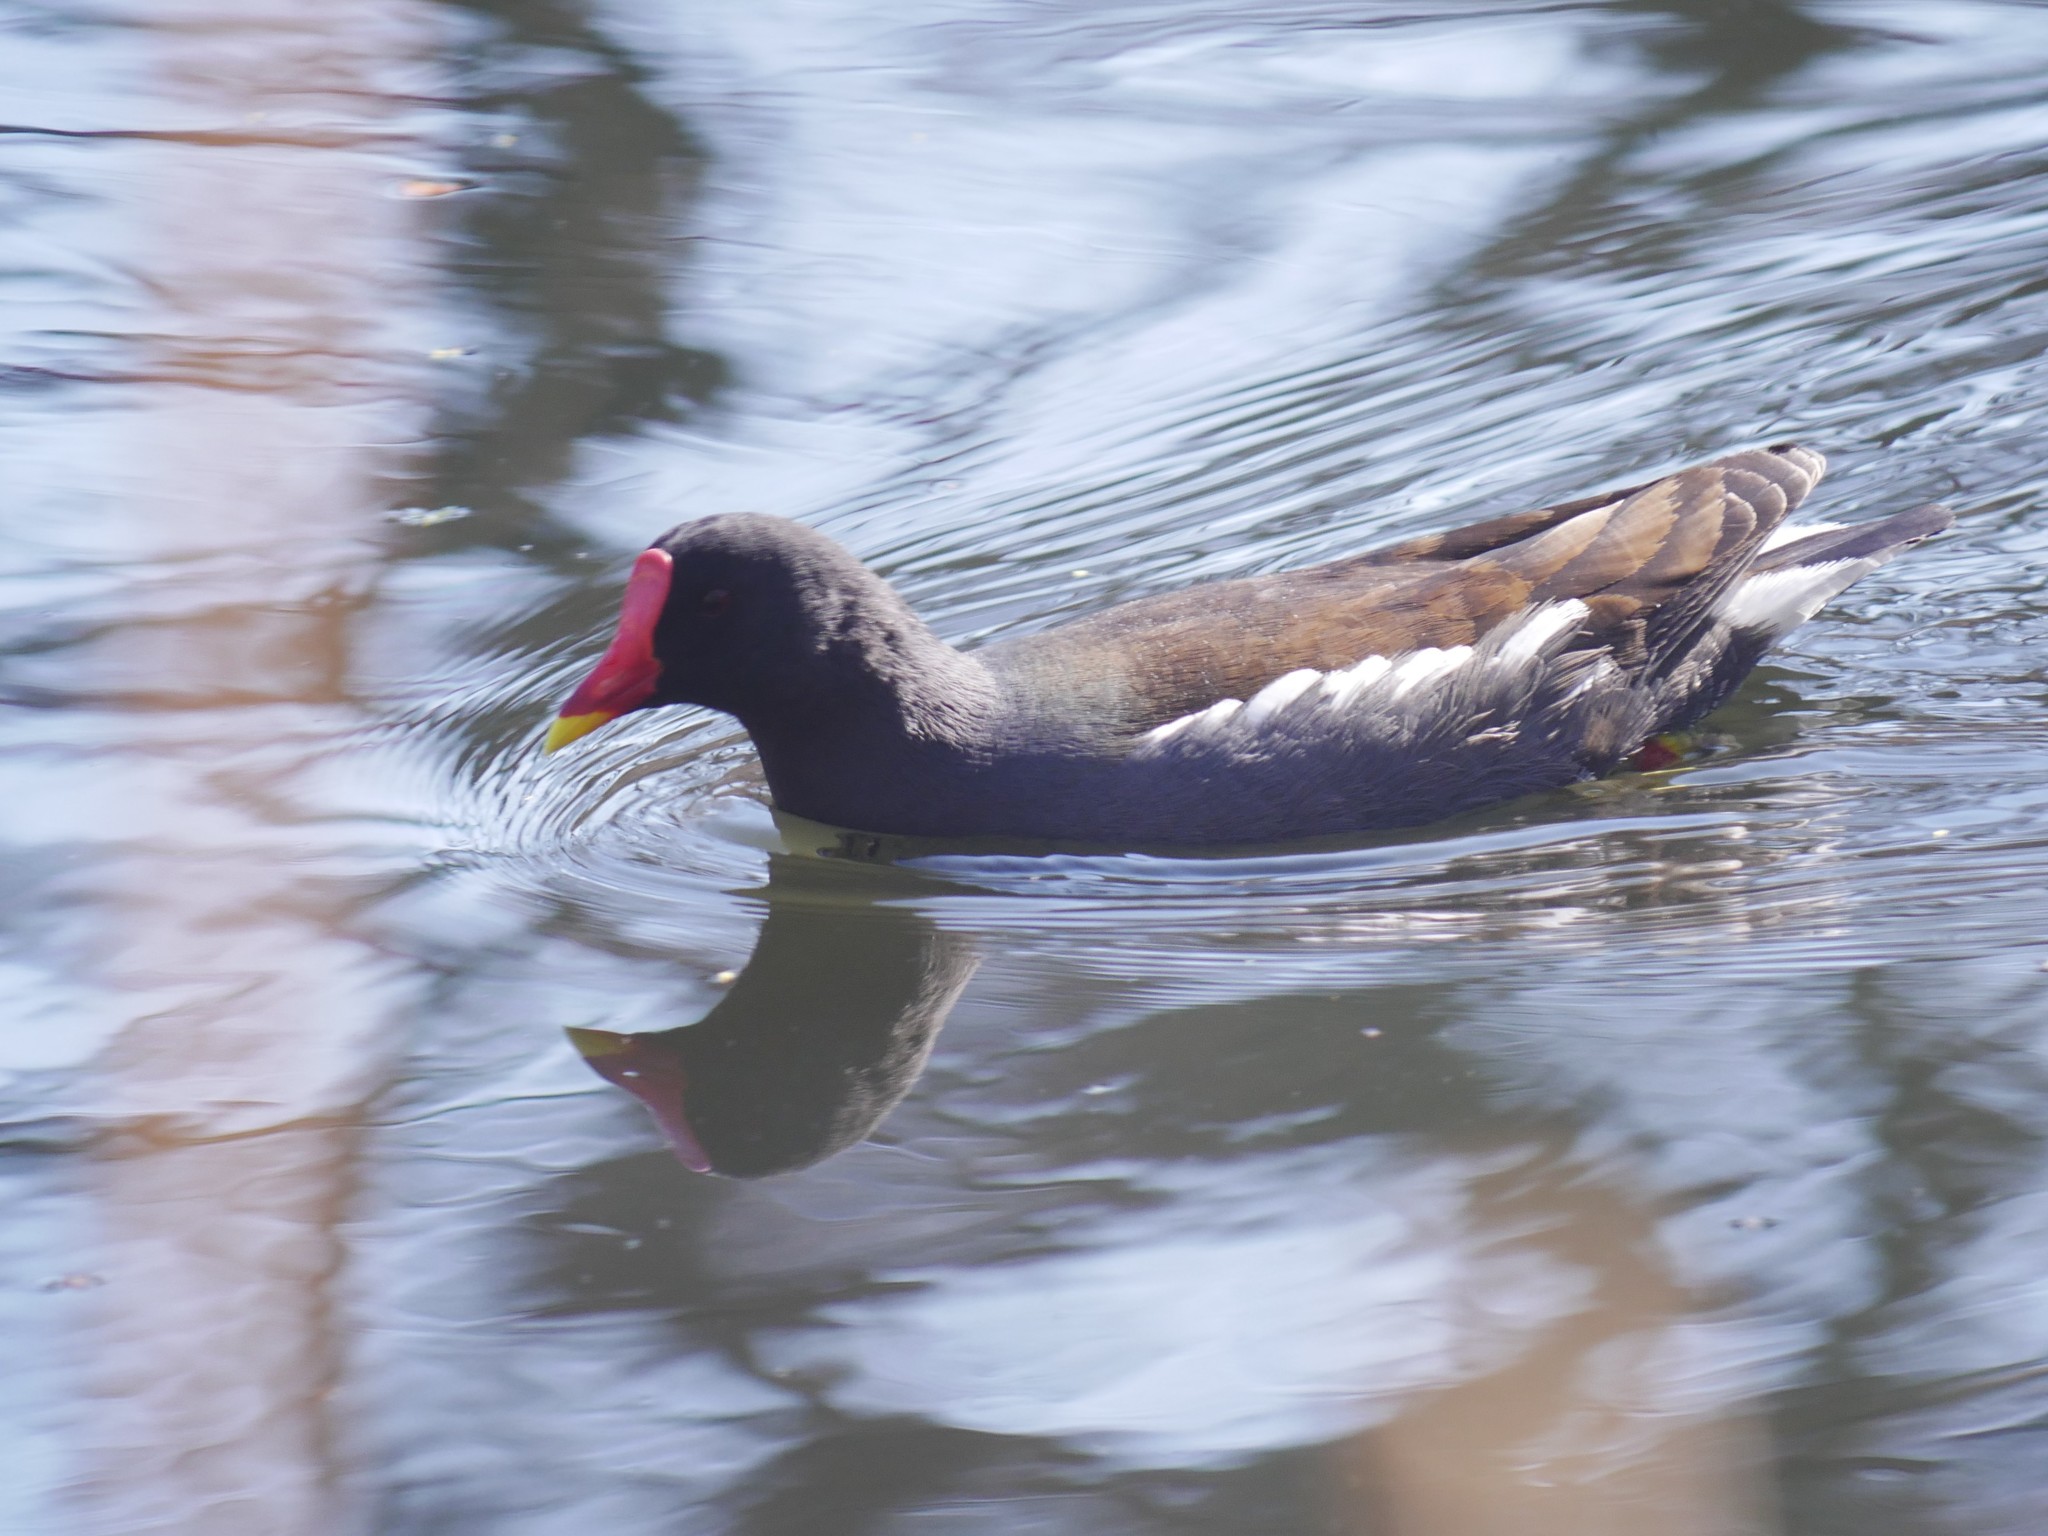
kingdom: Animalia
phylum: Chordata
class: Aves
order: Gruiformes
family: Rallidae
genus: Gallinula
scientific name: Gallinula chloropus
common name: Common moorhen
